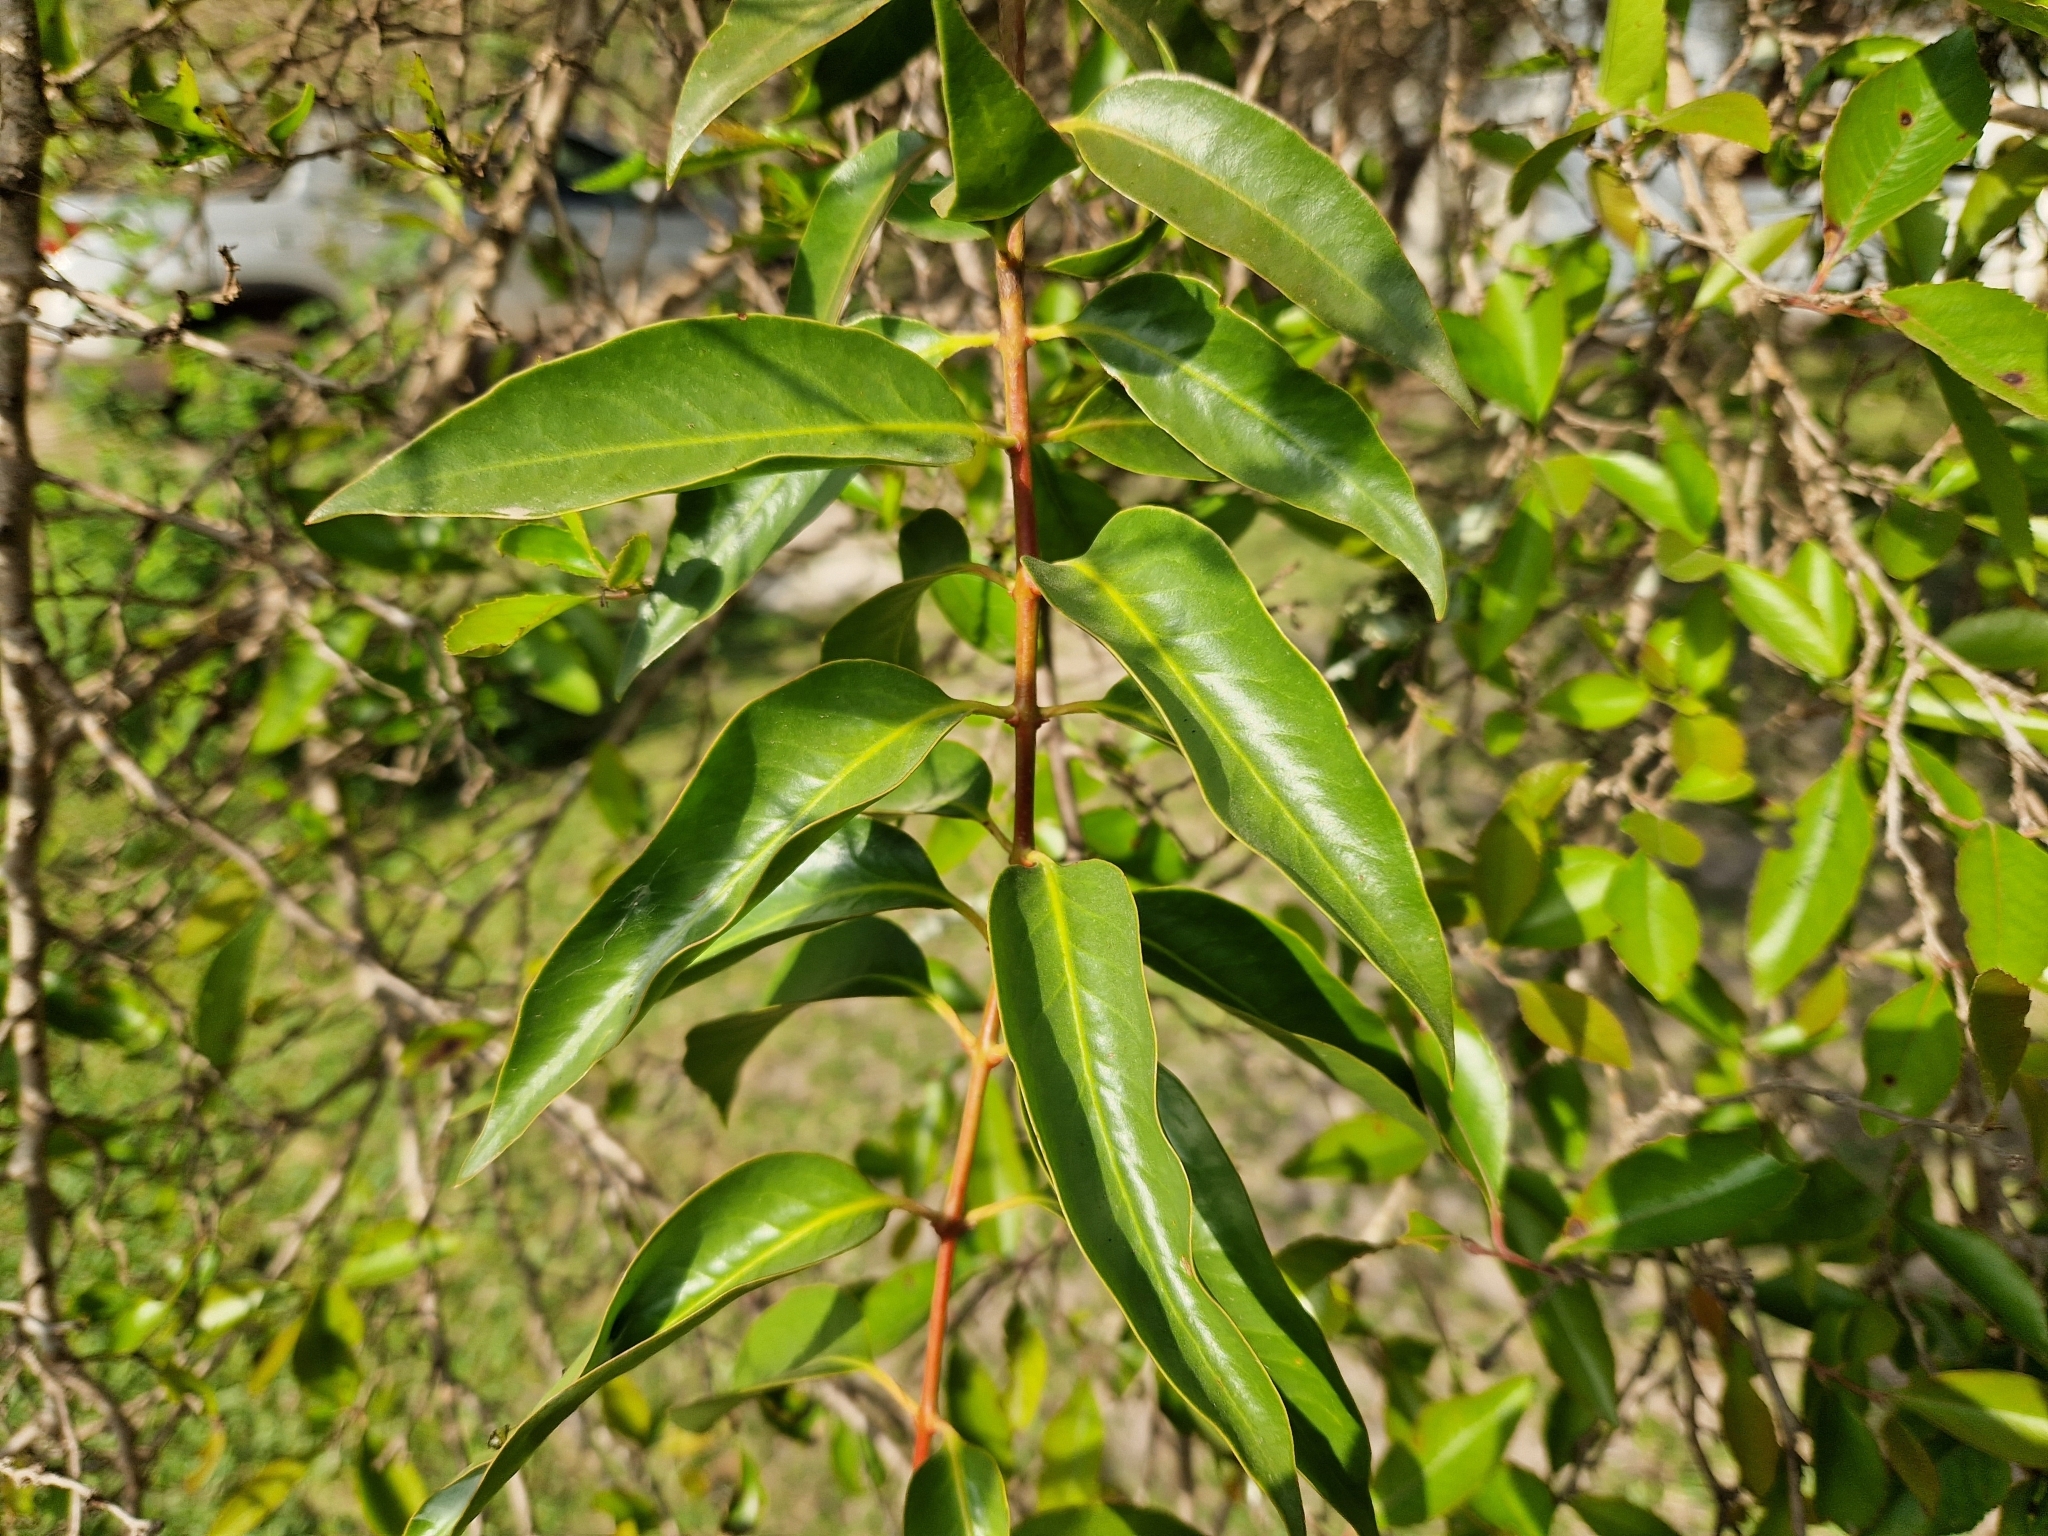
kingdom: Plantae
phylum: Tracheophyta
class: Magnoliopsida
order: Santalales
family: Loranthaceae
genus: Tripodanthus
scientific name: Tripodanthus acutifolius
